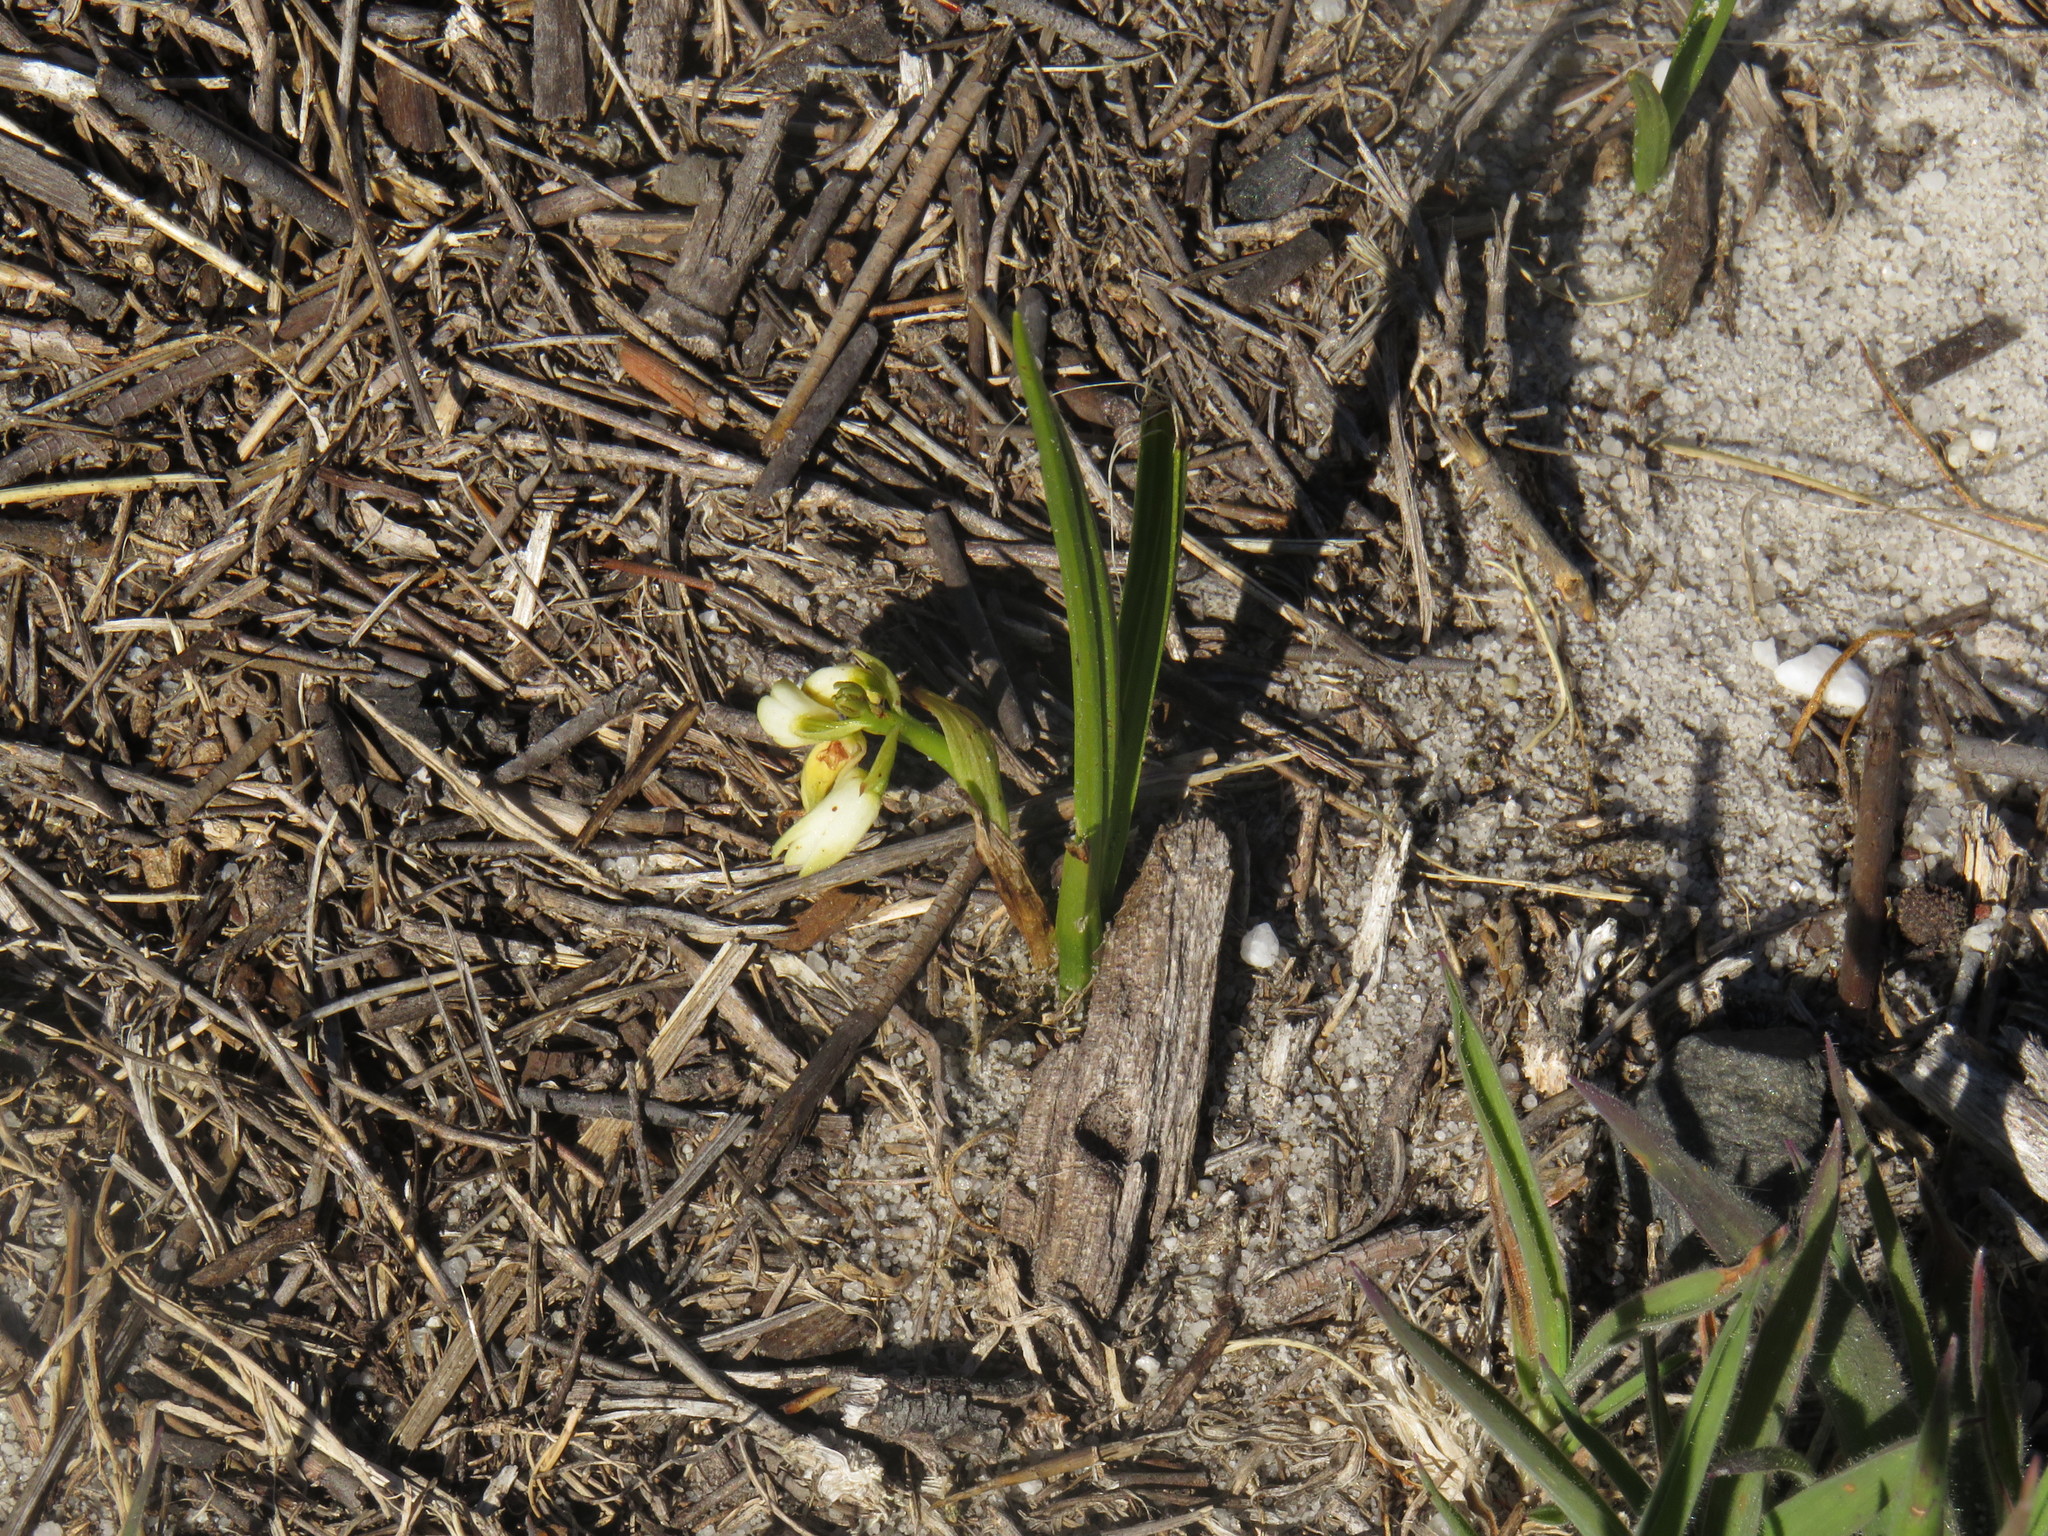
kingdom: Plantae
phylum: Tracheophyta
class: Liliopsida
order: Asparagales
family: Orchidaceae
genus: Eulophia
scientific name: Eulophia aculeata
